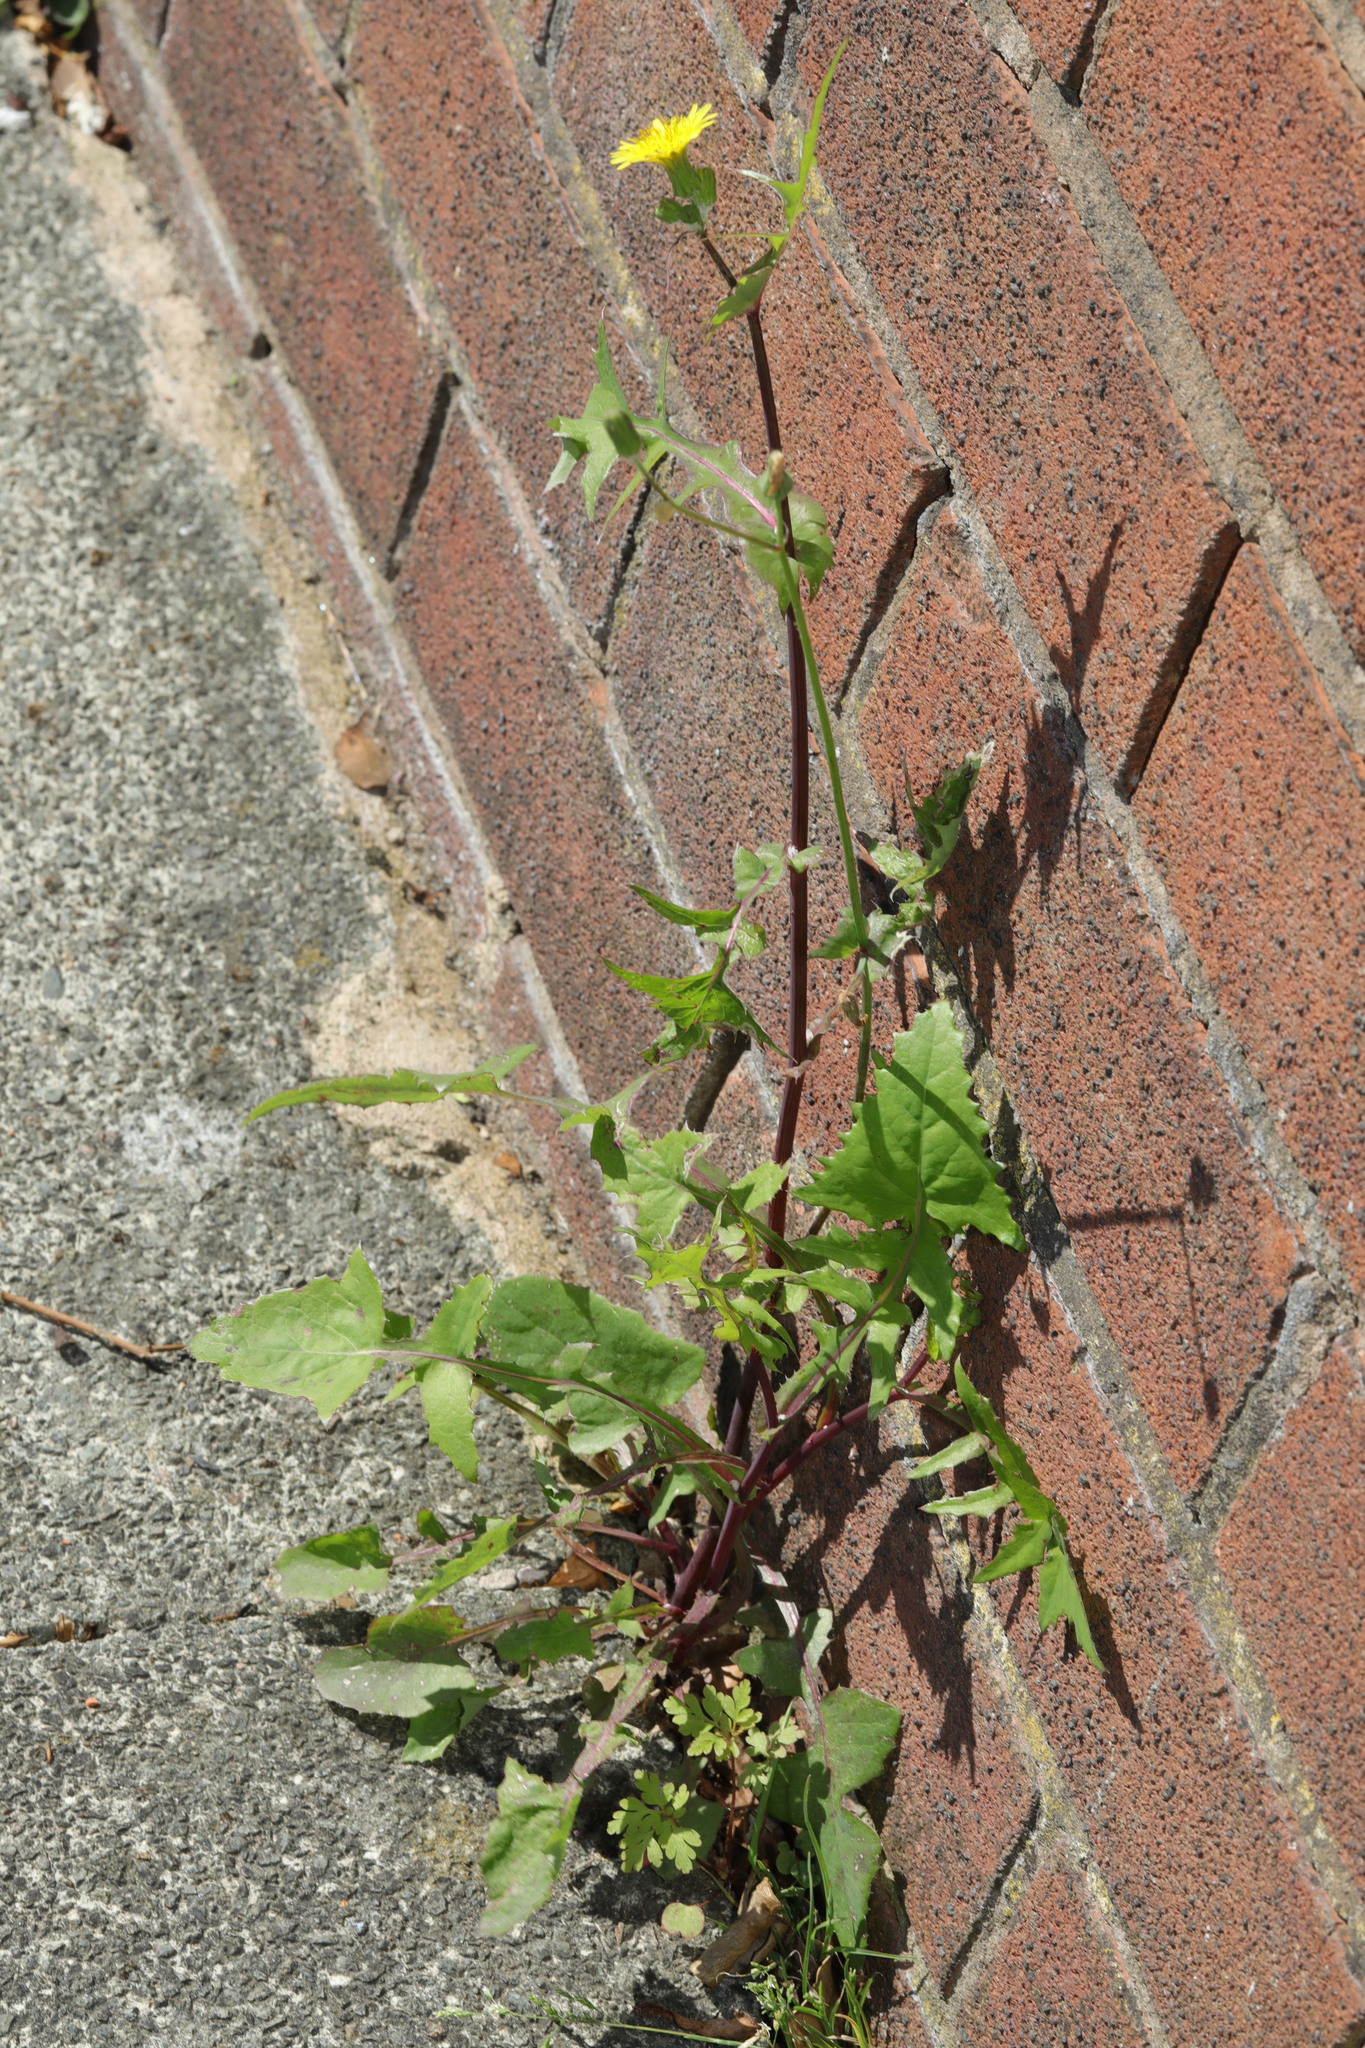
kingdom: Plantae
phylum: Tracheophyta
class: Magnoliopsida
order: Asterales
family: Asteraceae
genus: Sonchus
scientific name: Sonchus oleraceus
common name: Common sowthistle
